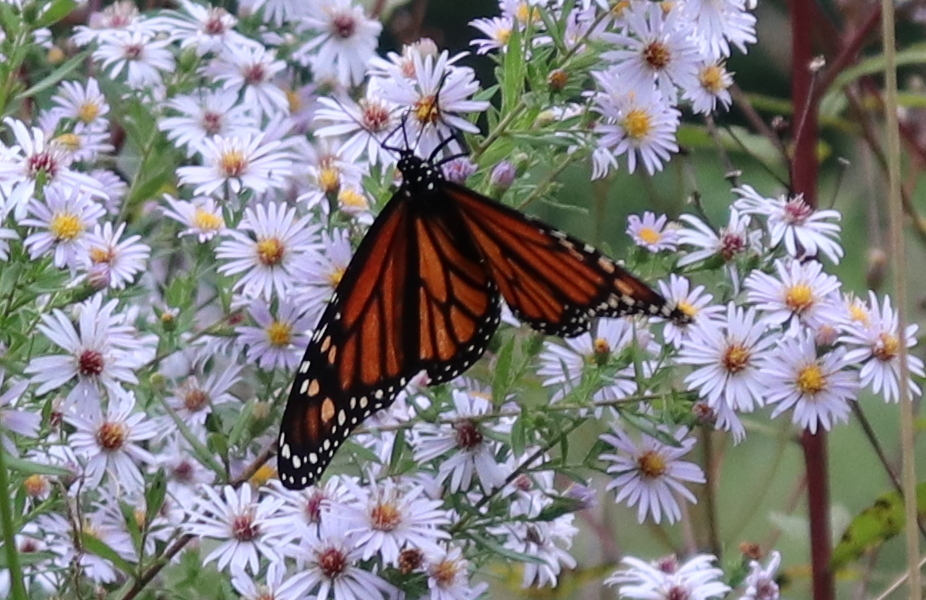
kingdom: Animalia
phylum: Arthropoda
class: Insecta
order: Lepidoptera
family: Nymphalidae
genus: Danaus
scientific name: Danaus plexippus
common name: Monarch
